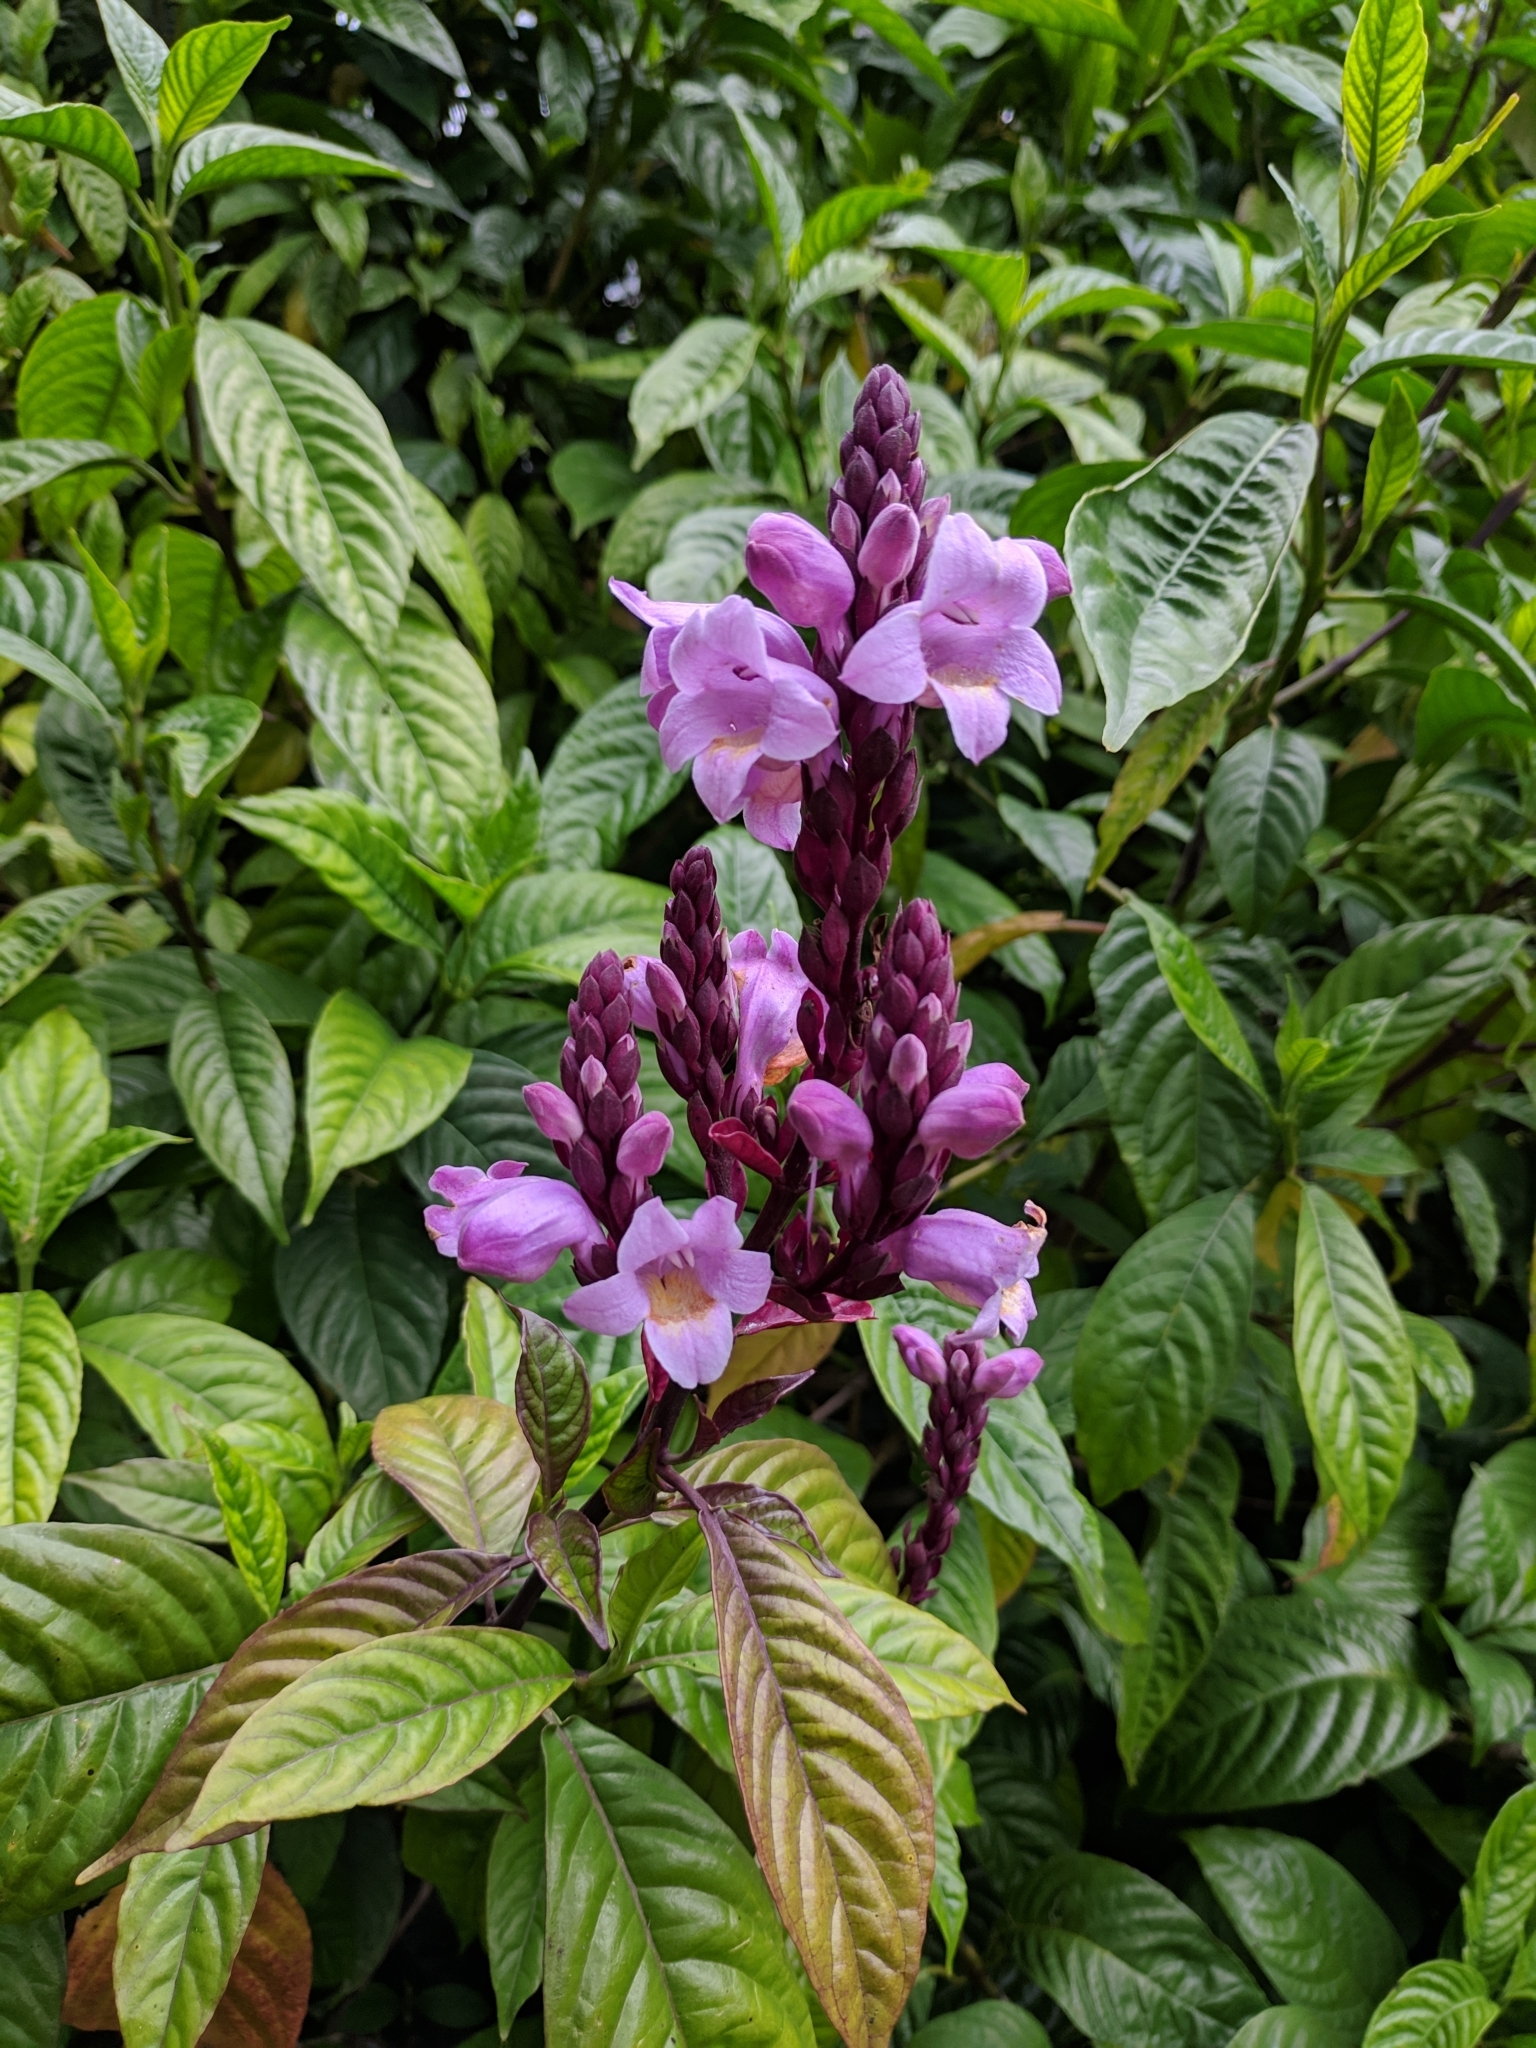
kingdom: Plantae
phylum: Tracheophyta
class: Magnoliopsida
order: Lamiales
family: Acanthaceae
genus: Phlogacanthus
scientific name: Phlogacanthus turgidus
